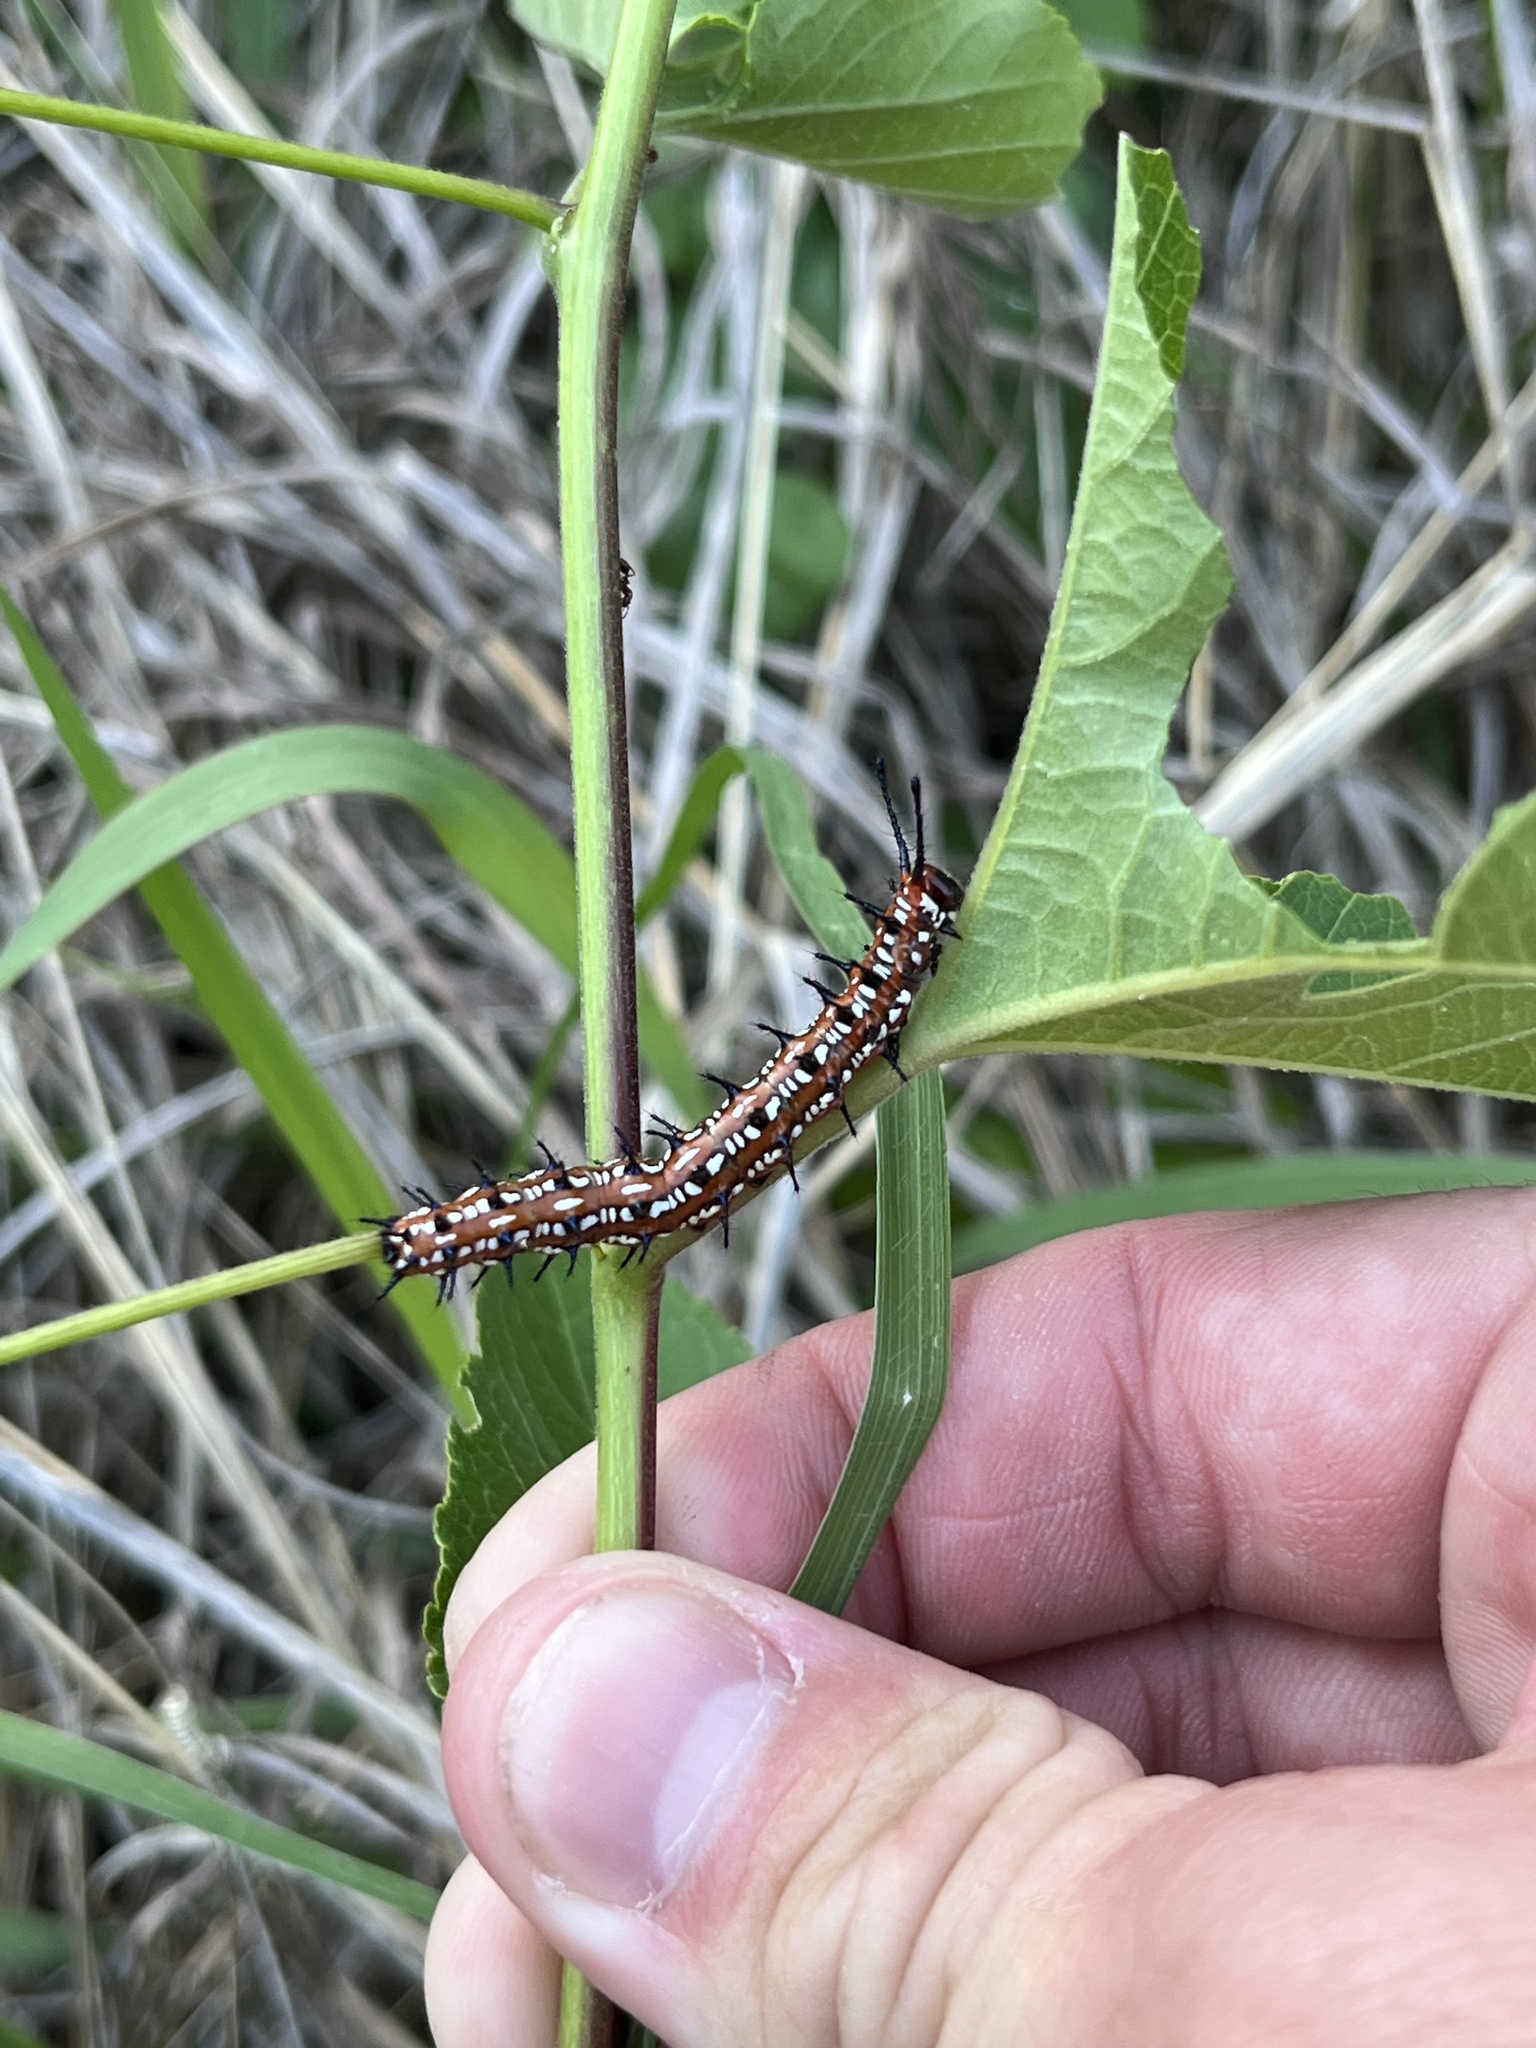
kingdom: Animalia
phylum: Arthropoda
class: Insecta
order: Lepidoptera
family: Nymphalidae
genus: Euptoieta
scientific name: Euptoieta claudia
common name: Variegated fritillary
